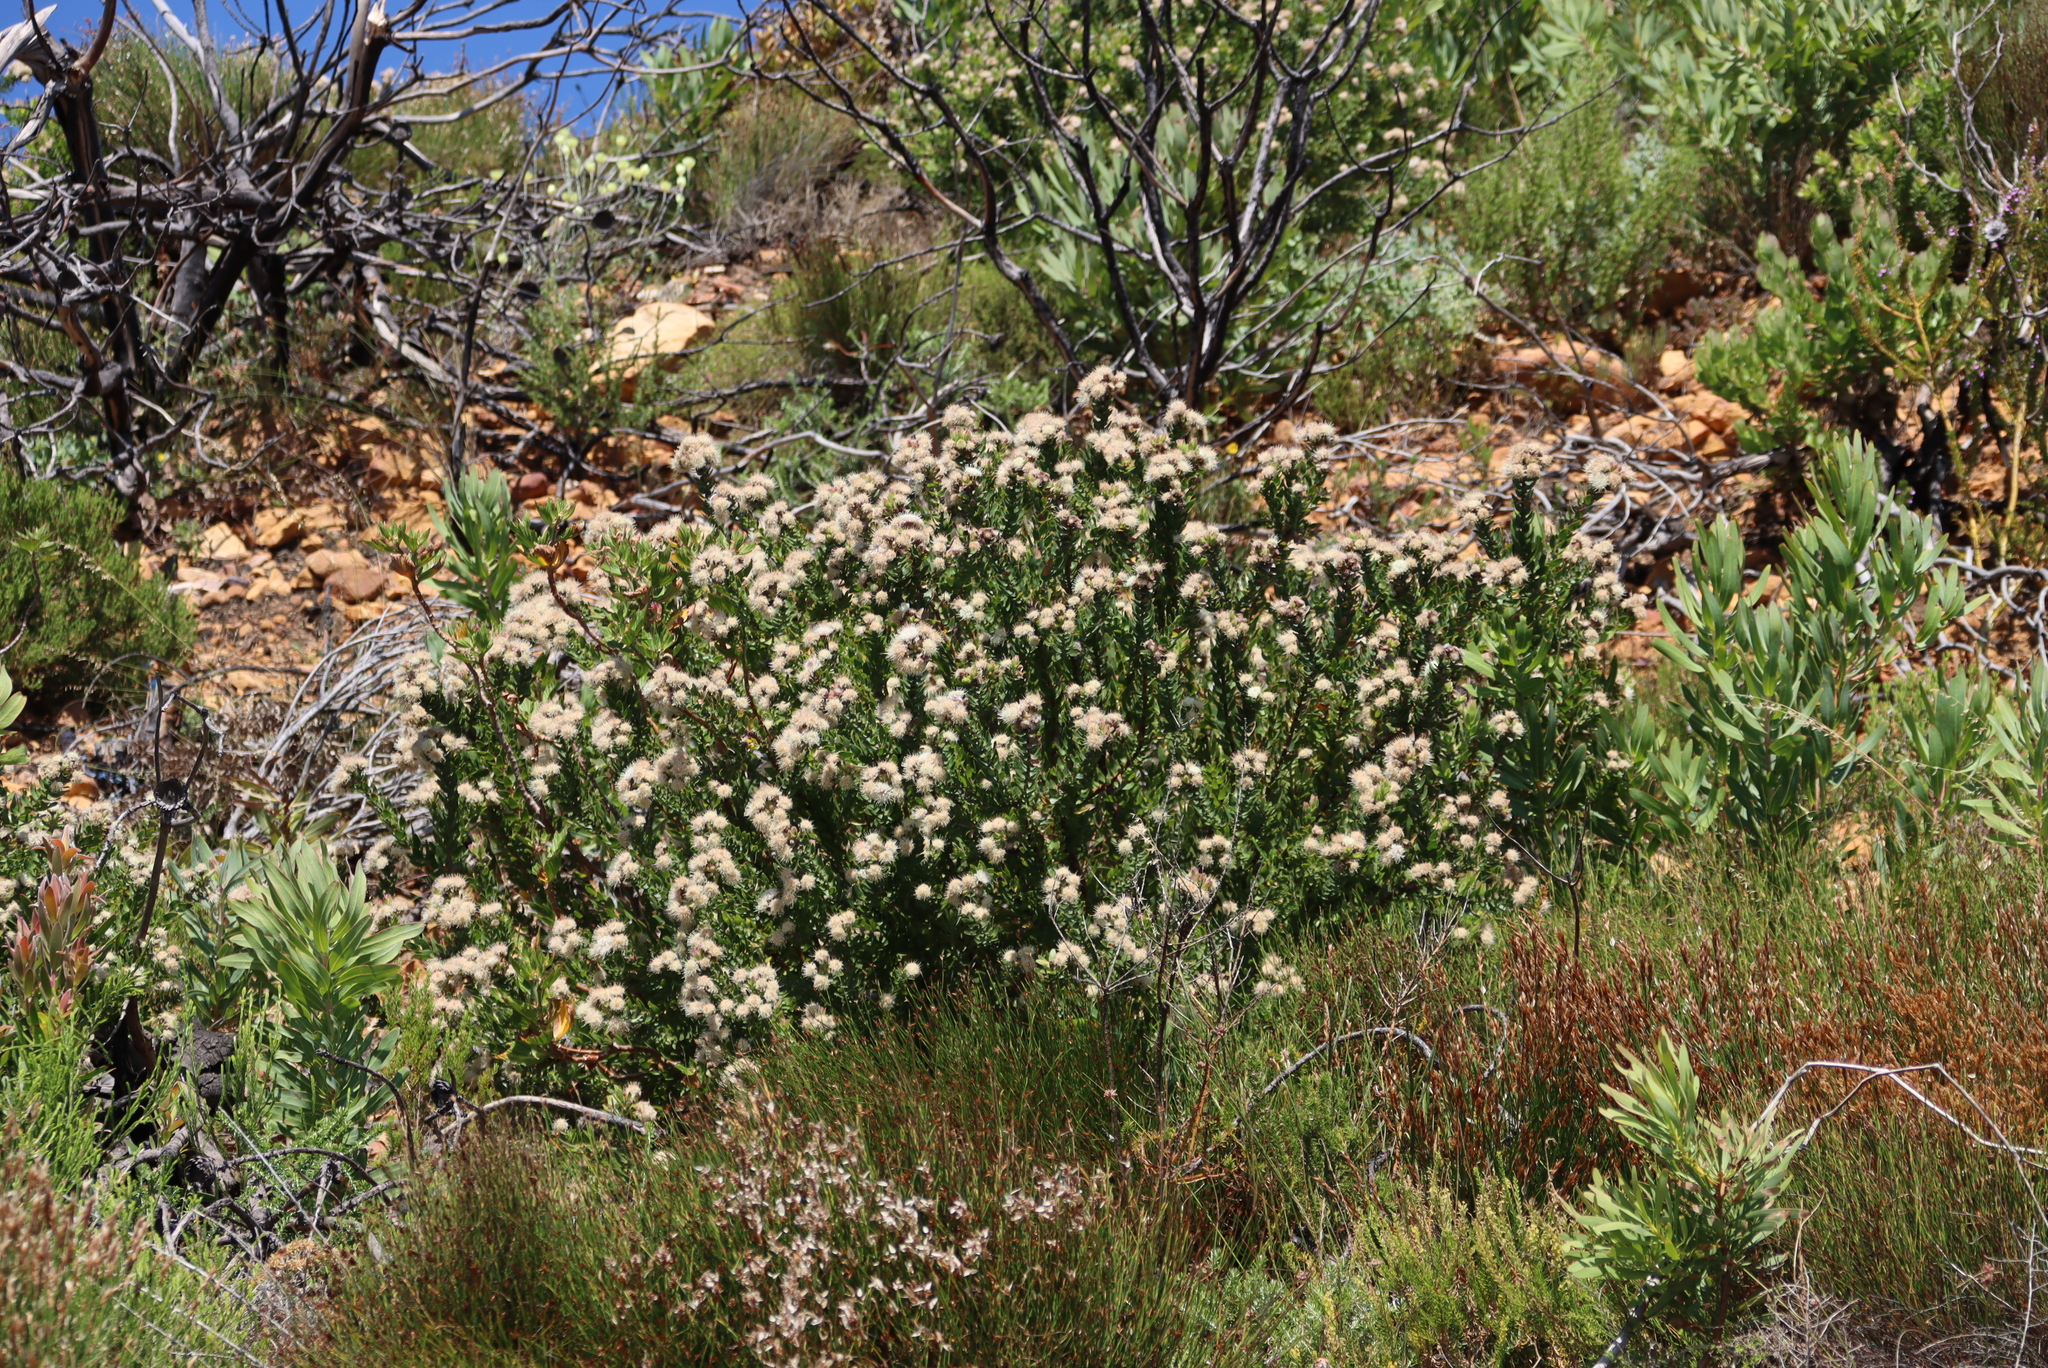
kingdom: Plantae
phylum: Tracheophyta
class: Magnoliopsida
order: Proteales
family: Proteaceae
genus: Leucospermum
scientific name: Leucospermum bolusii
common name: Gordon's bay pincushion
